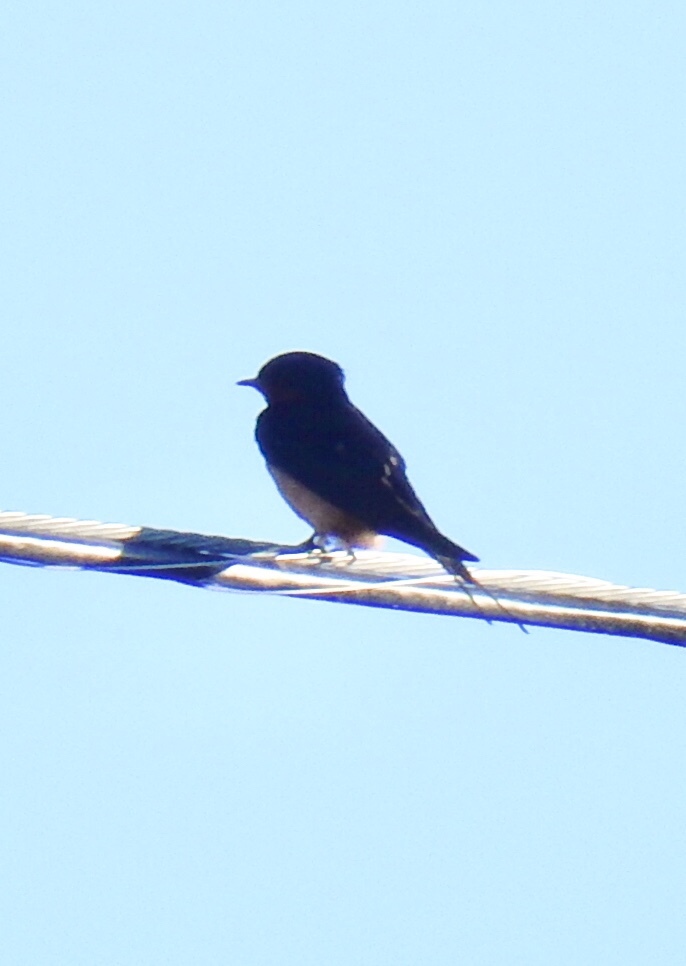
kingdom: Animalia
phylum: Chordata
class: Aves
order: Passeriformes
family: Hirundinidae
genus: Hirundo
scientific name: Hirundo rustica
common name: Barn swallow
